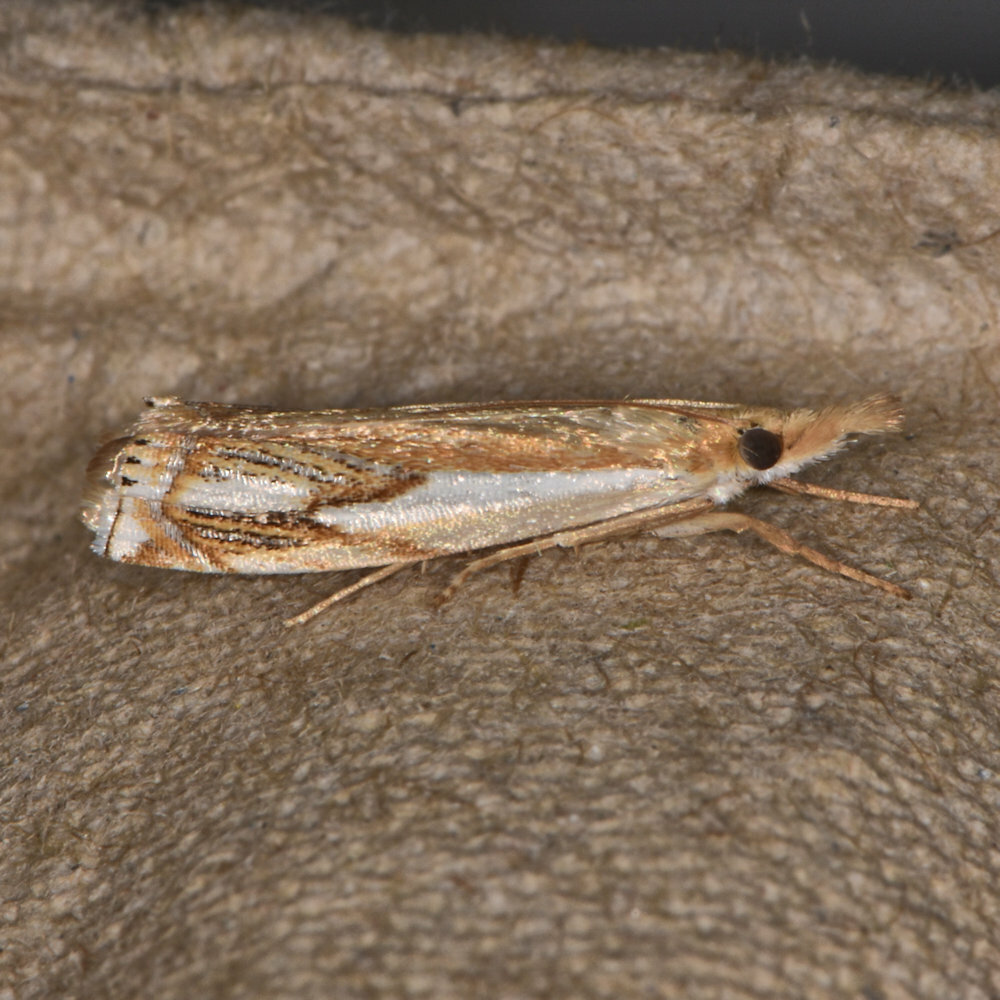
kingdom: Animalia
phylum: Arthropoda
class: Insecta
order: Lepidoptera
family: Crambidae
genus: Crambus
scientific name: Crambus agitatellus
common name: Double-banded grass-veneer
